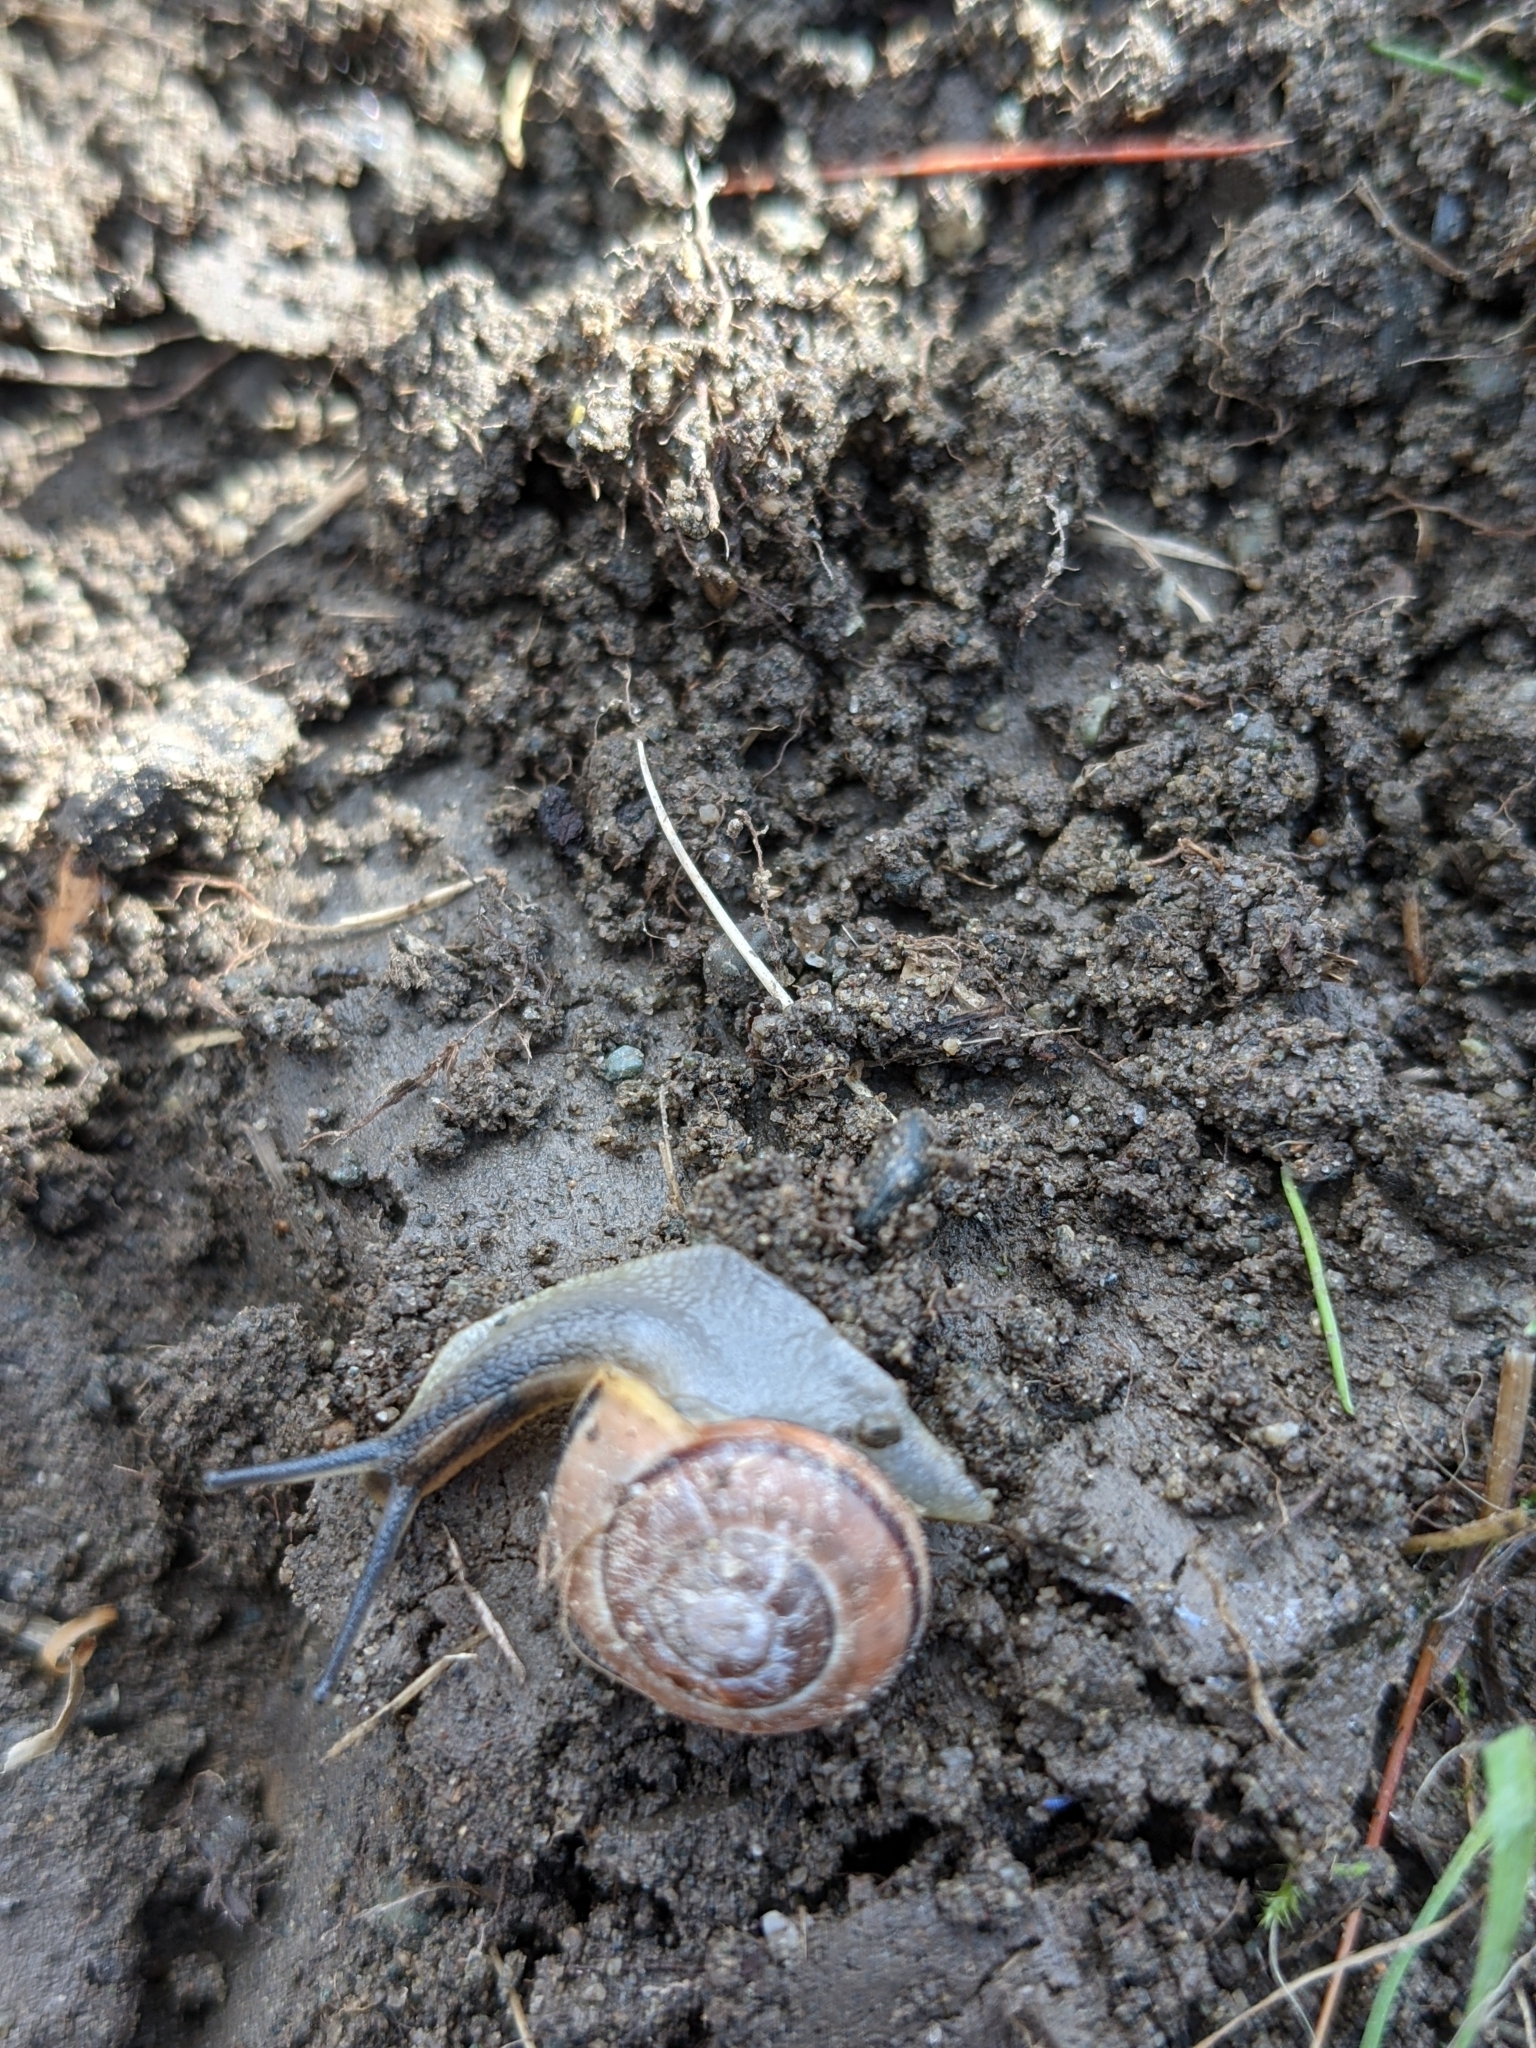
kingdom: Animalia
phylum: Mollusca
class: Gastropoda
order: Stylommatophora
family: Helicidae
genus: Cepaea
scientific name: Cepaea nemoralis
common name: Grovesnail
